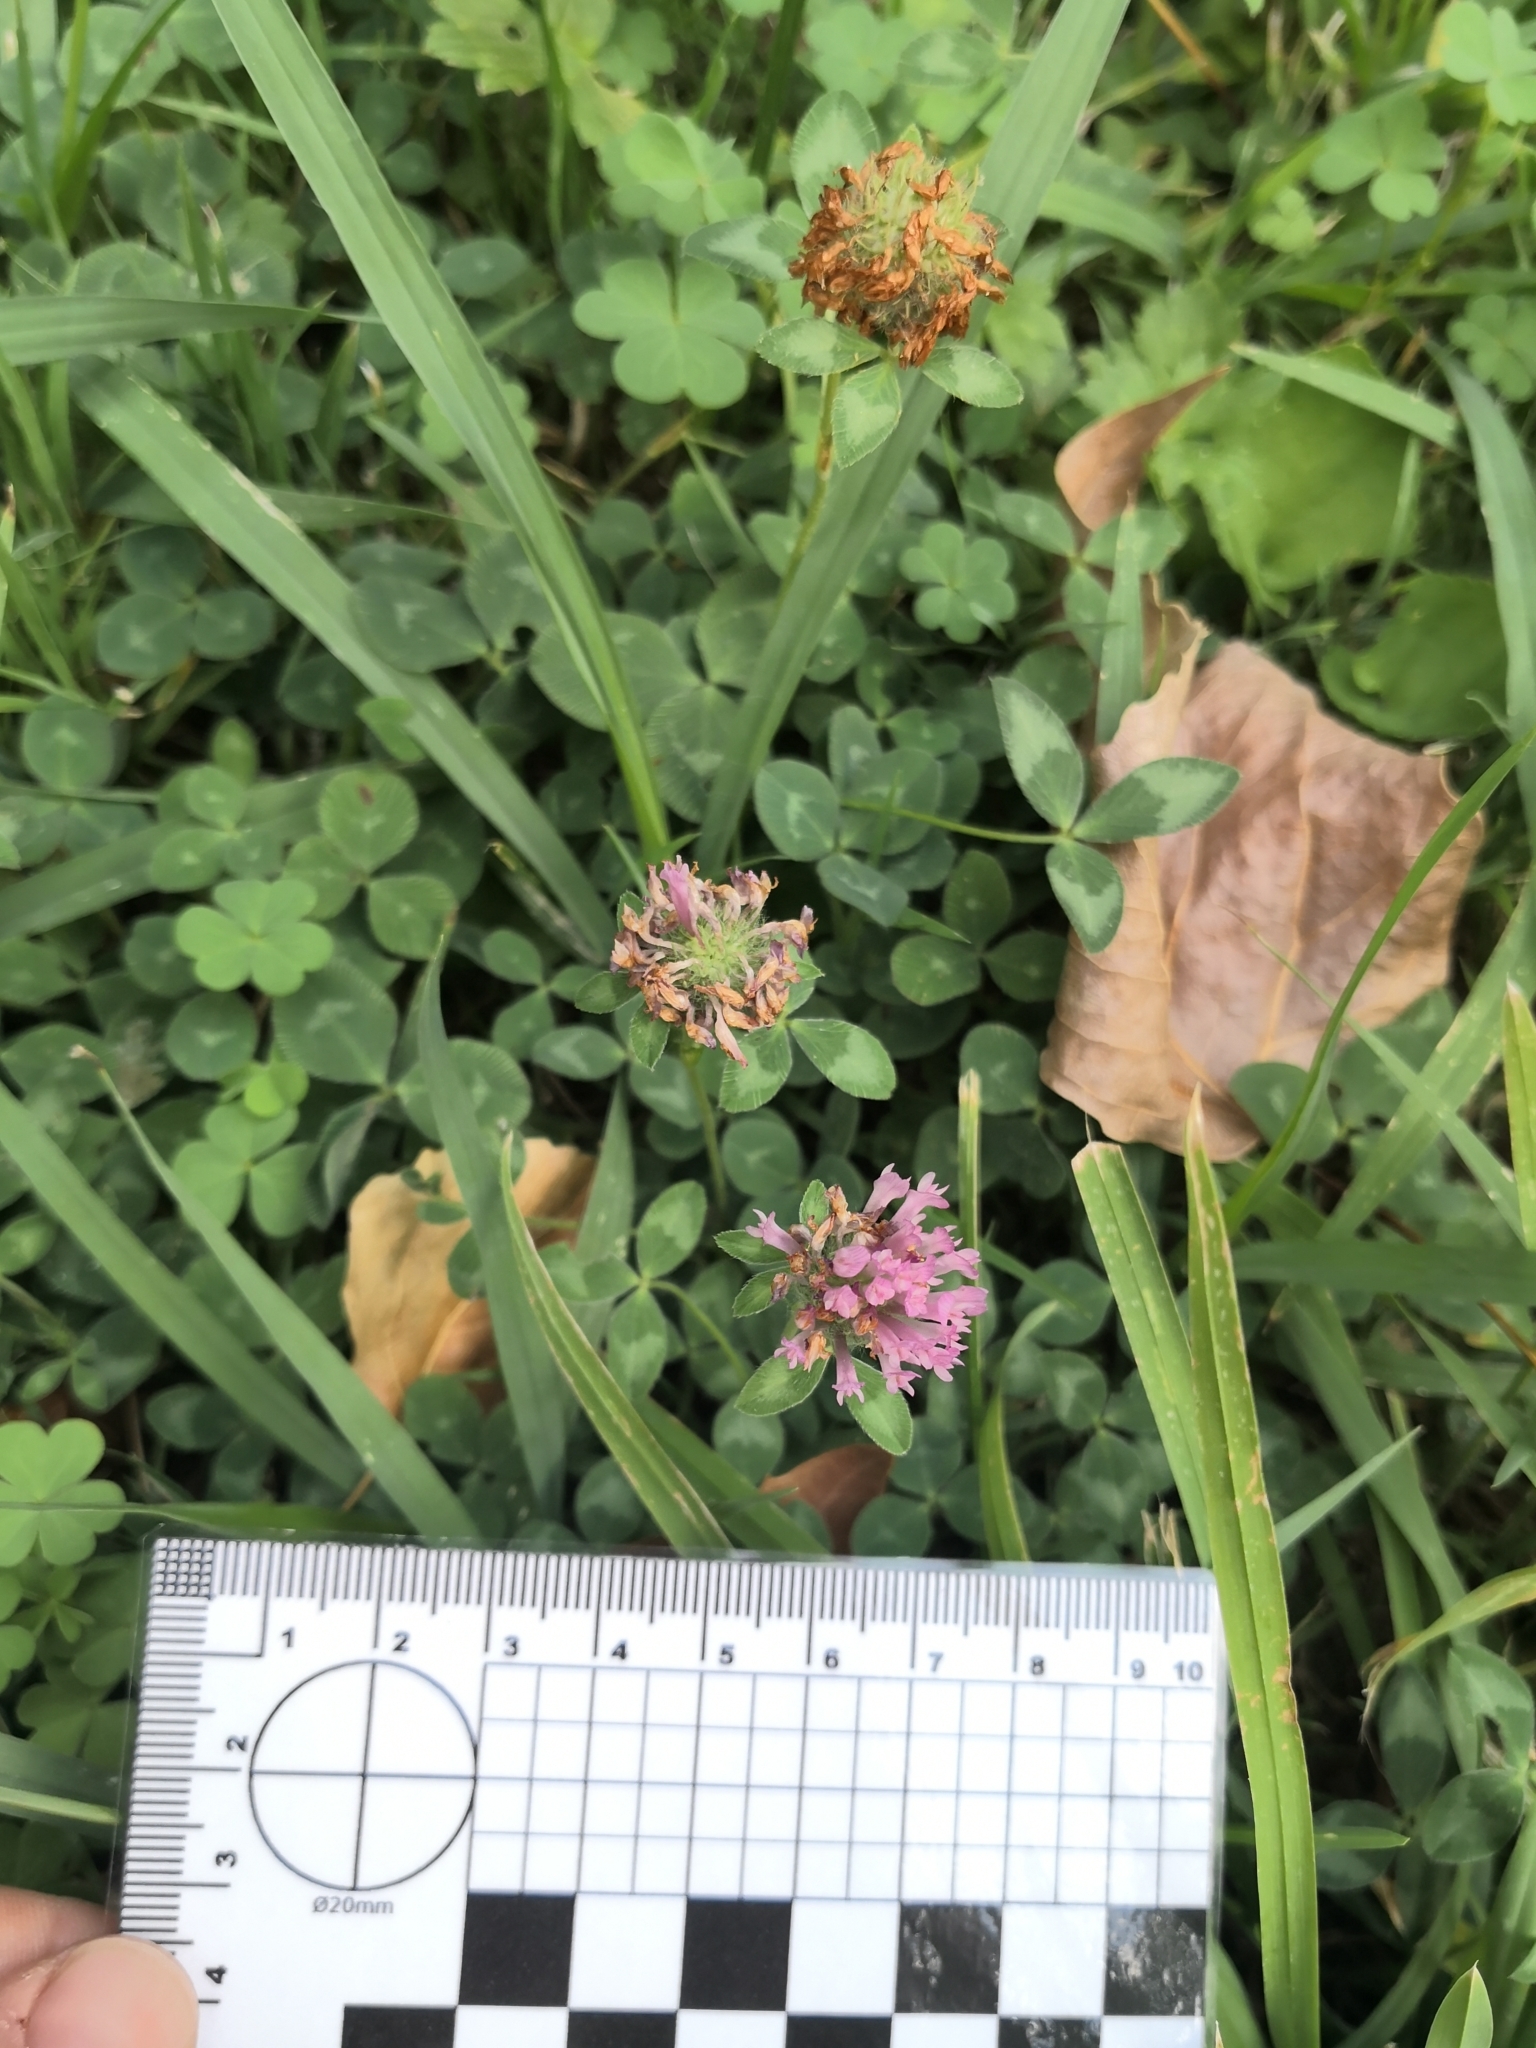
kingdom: Plantae
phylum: Tracheophyta
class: Magnoliopsida
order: Fabales
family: Fabaceae
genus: Trifolium
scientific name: Trifolium pratense
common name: Red clover
